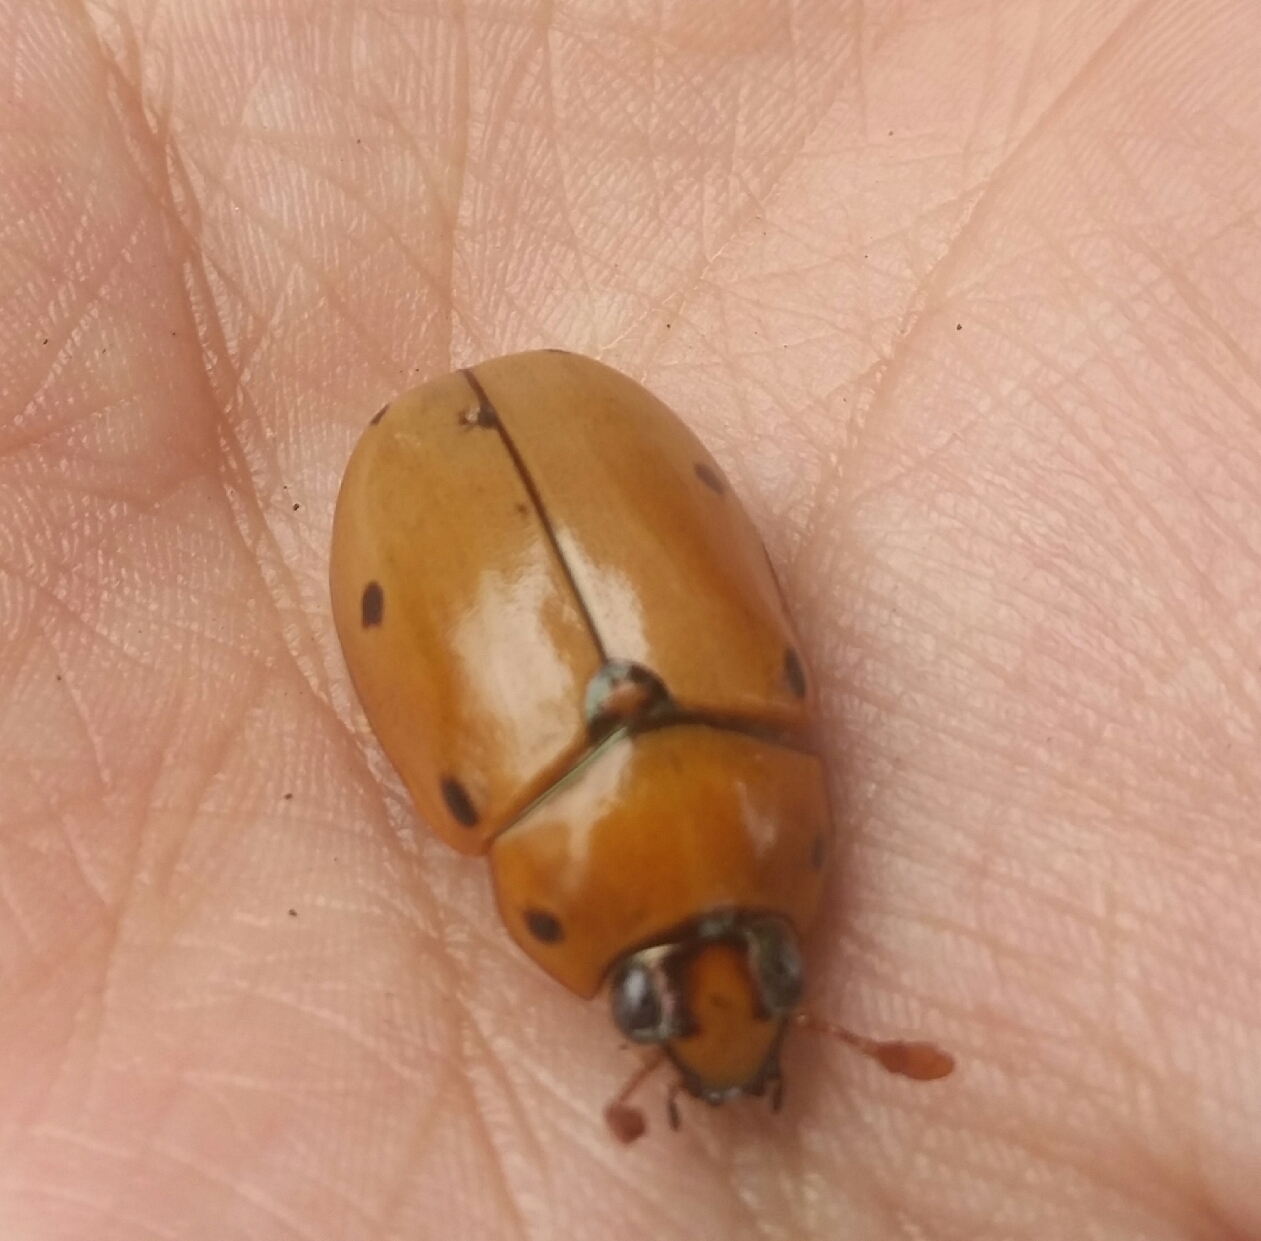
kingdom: Animalia
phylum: Arthropoda
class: Insecta
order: Coleoptera
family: Scarabaeidae
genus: Pelidnota
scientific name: Pelidnota punctata
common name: Grapevine beetle
